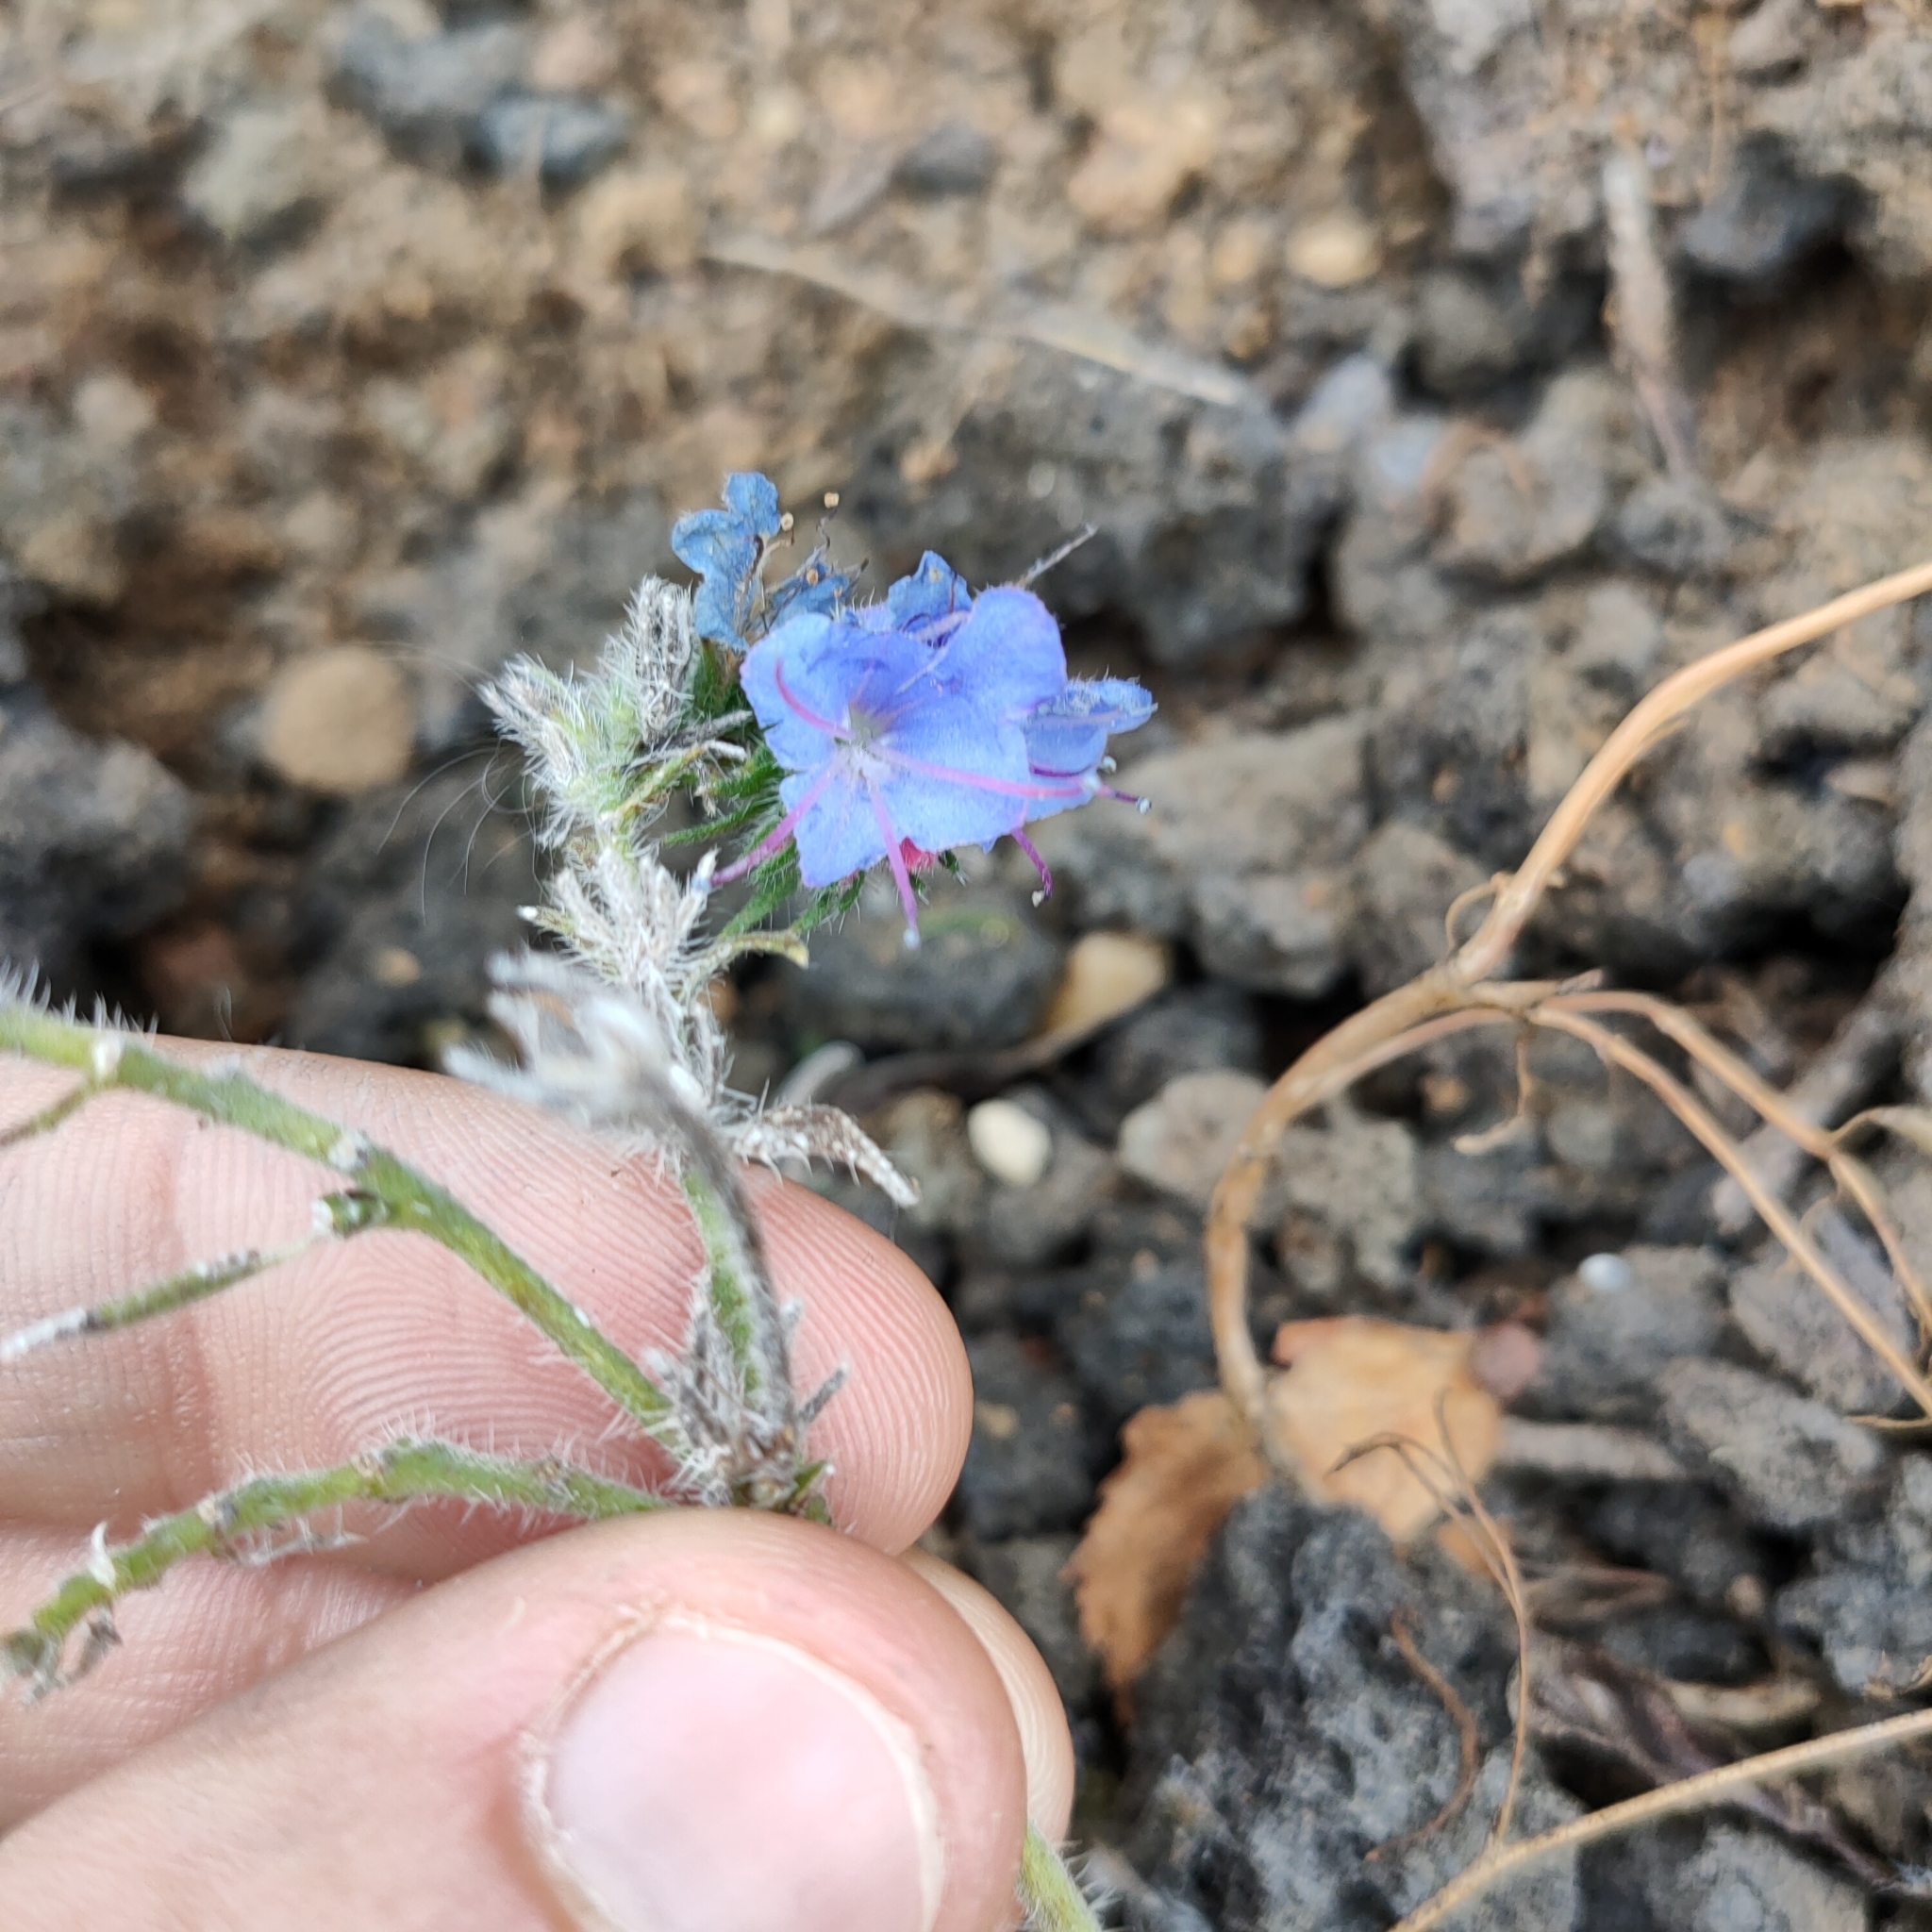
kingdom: Plantae
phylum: Tracheophyta
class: Magnoliopsida
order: Boraginales
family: Boraginaceae
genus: Echium
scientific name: Echium vulgare
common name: Common viper's bugloss
